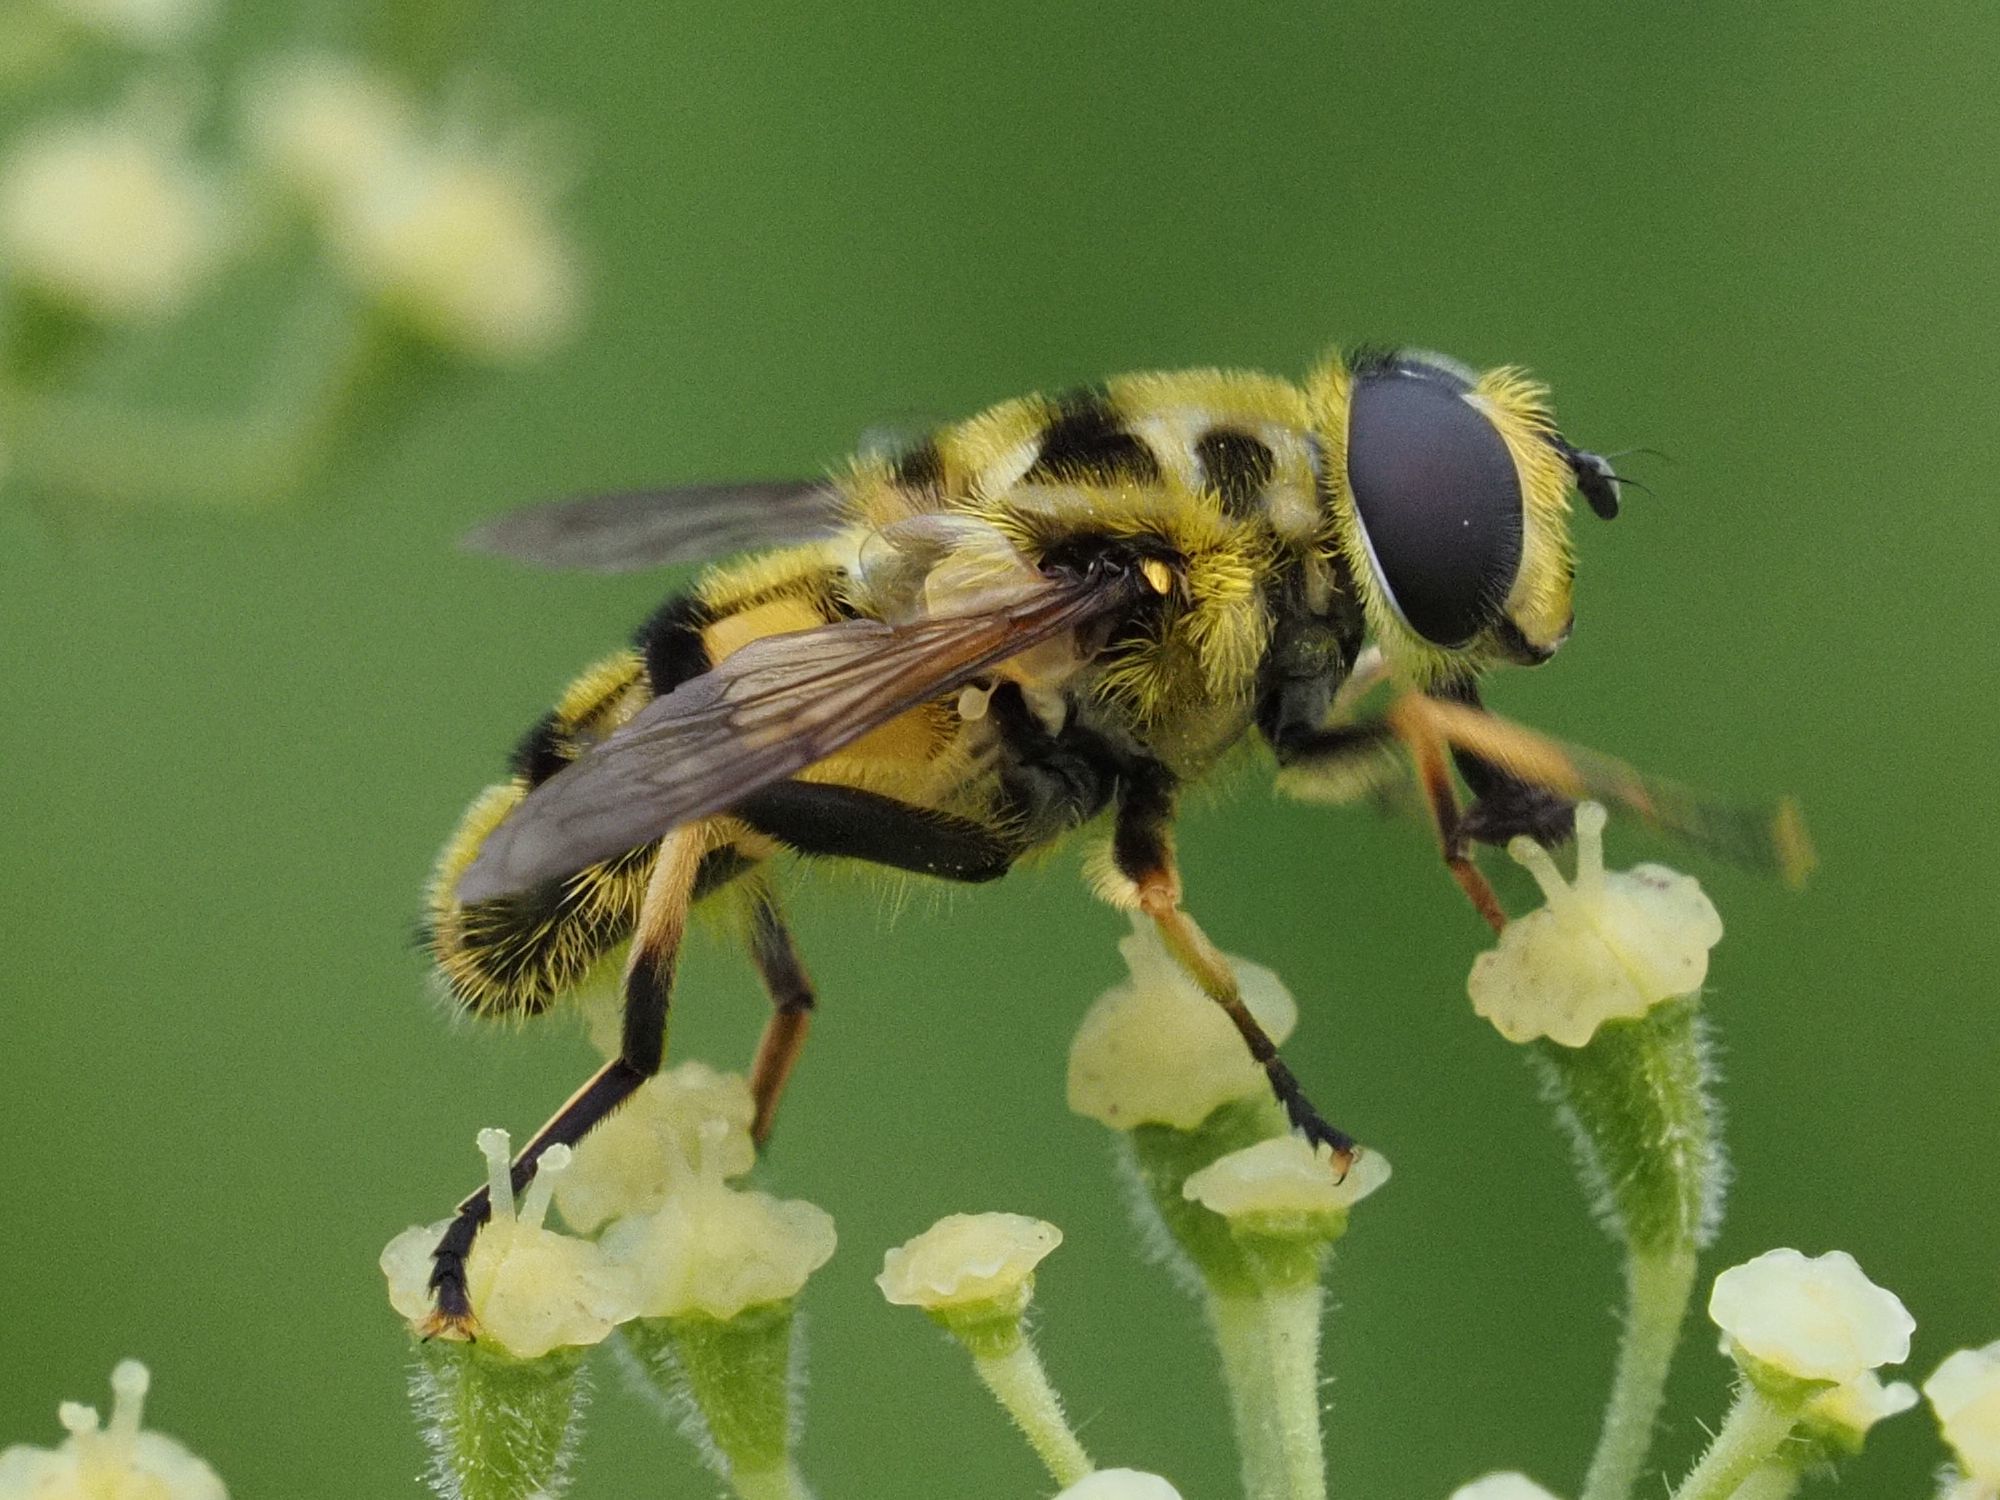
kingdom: Animalia
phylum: Arthropoda
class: Insecta
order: Diptera
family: Syrphidae
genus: Myathropa
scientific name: Myathropa florea
